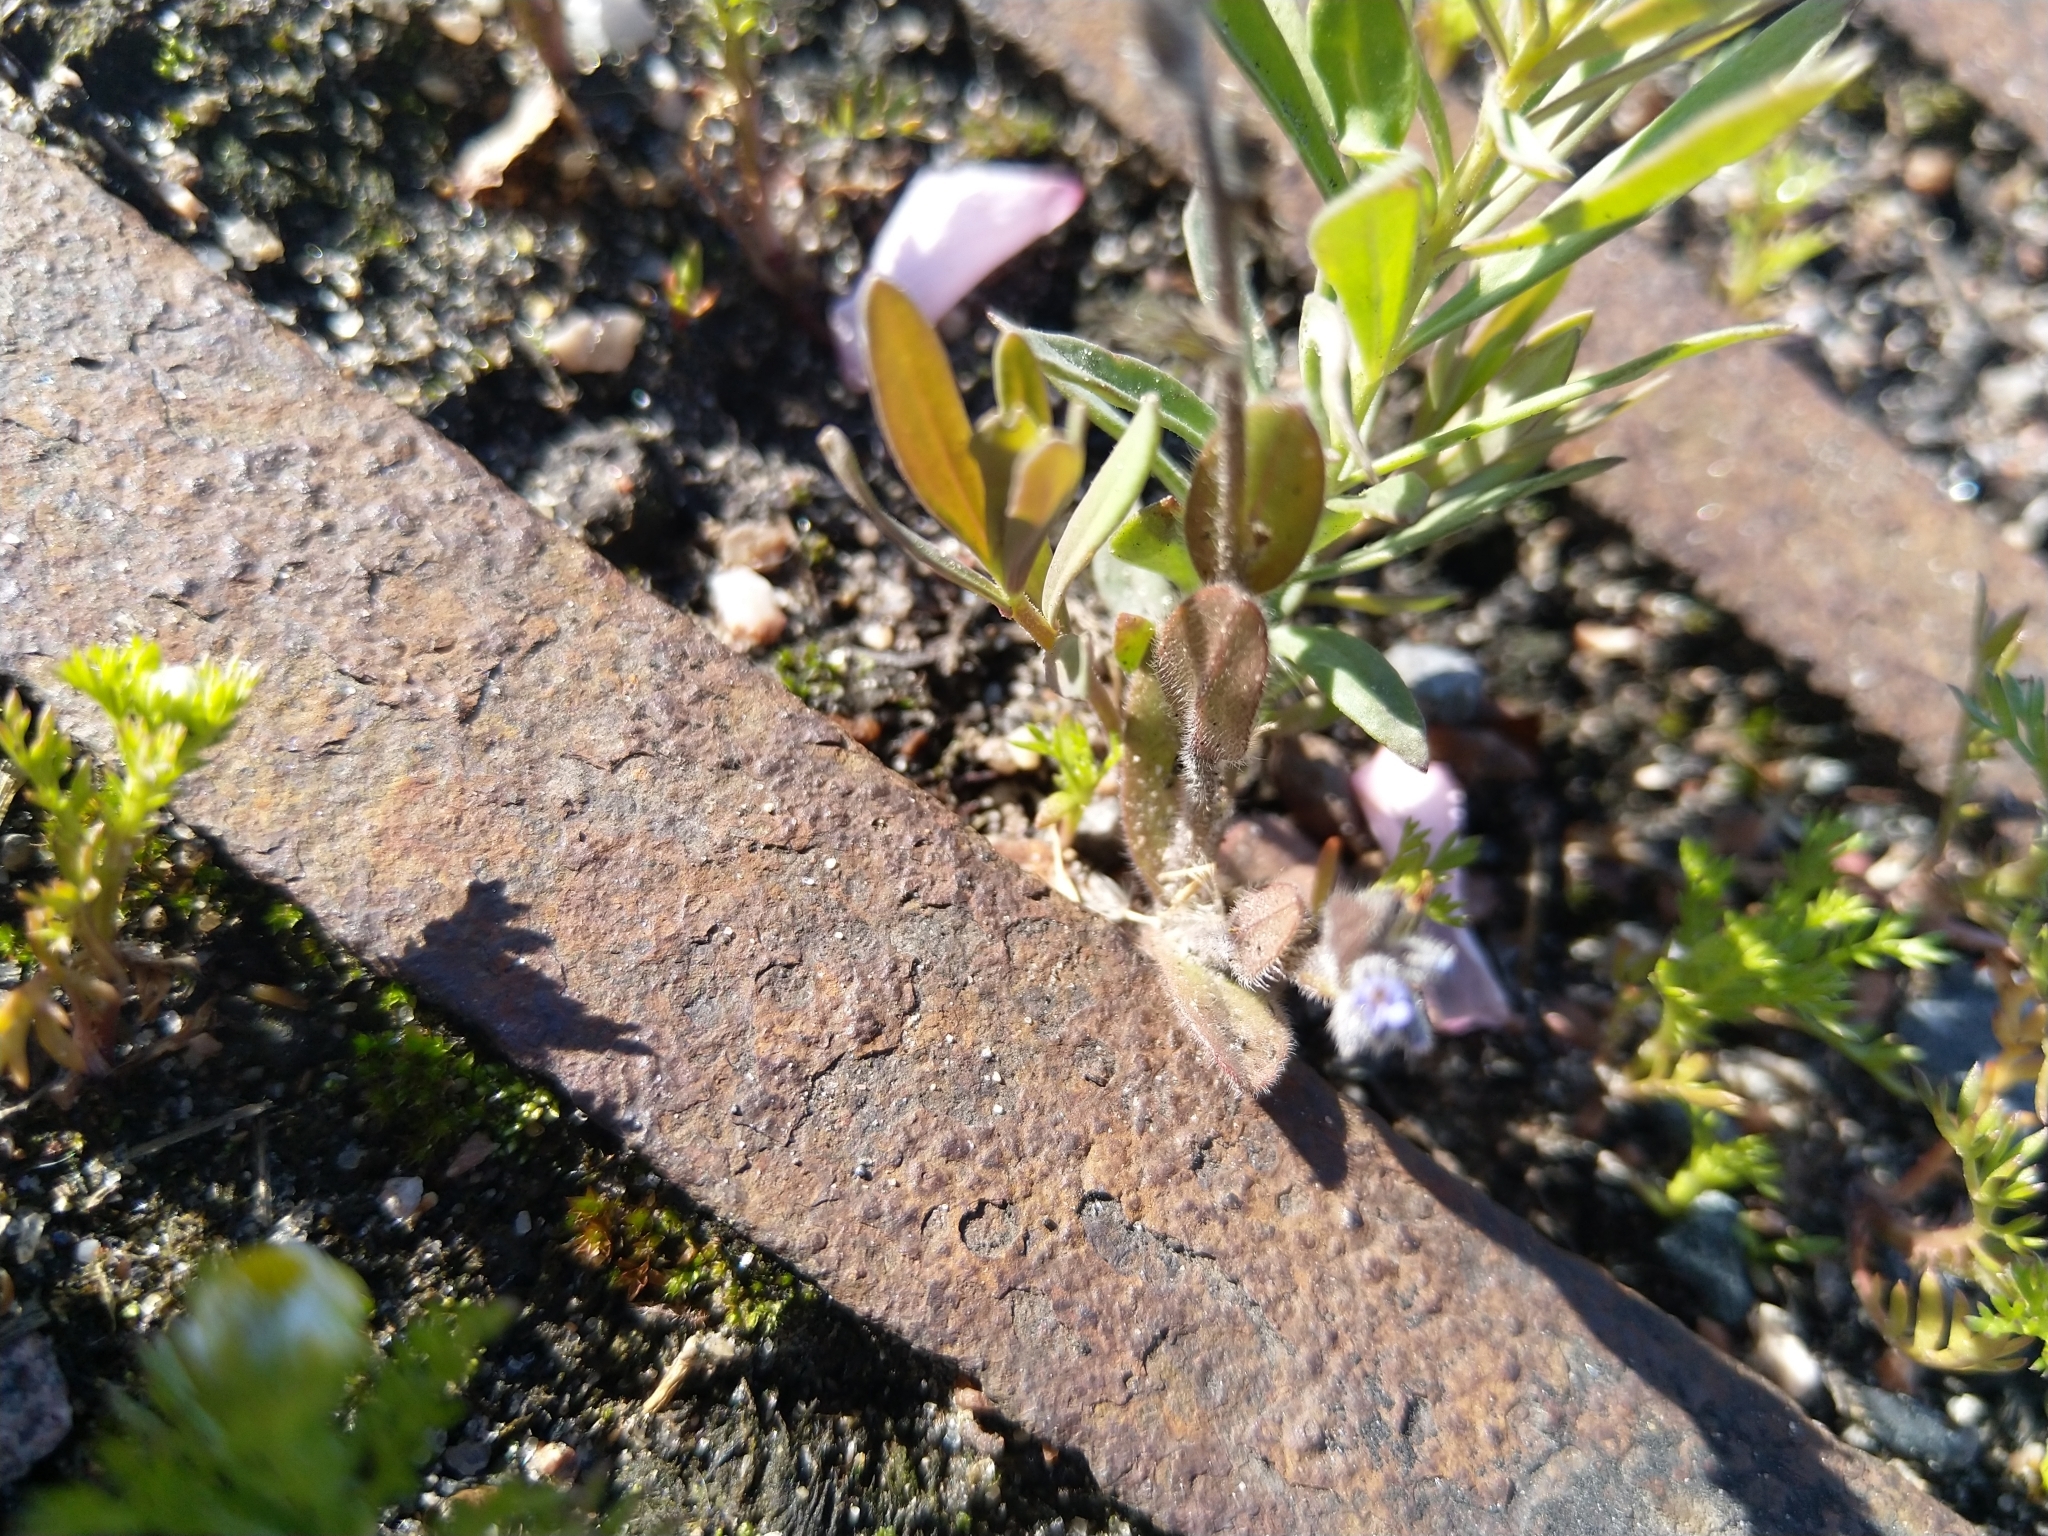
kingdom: Plantae
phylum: Tracheophyta
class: Magnoliopsida
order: Boraginales
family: Boraginaceae
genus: Myosotis
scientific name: Myosotis stricta
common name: Strict forget-me-not
